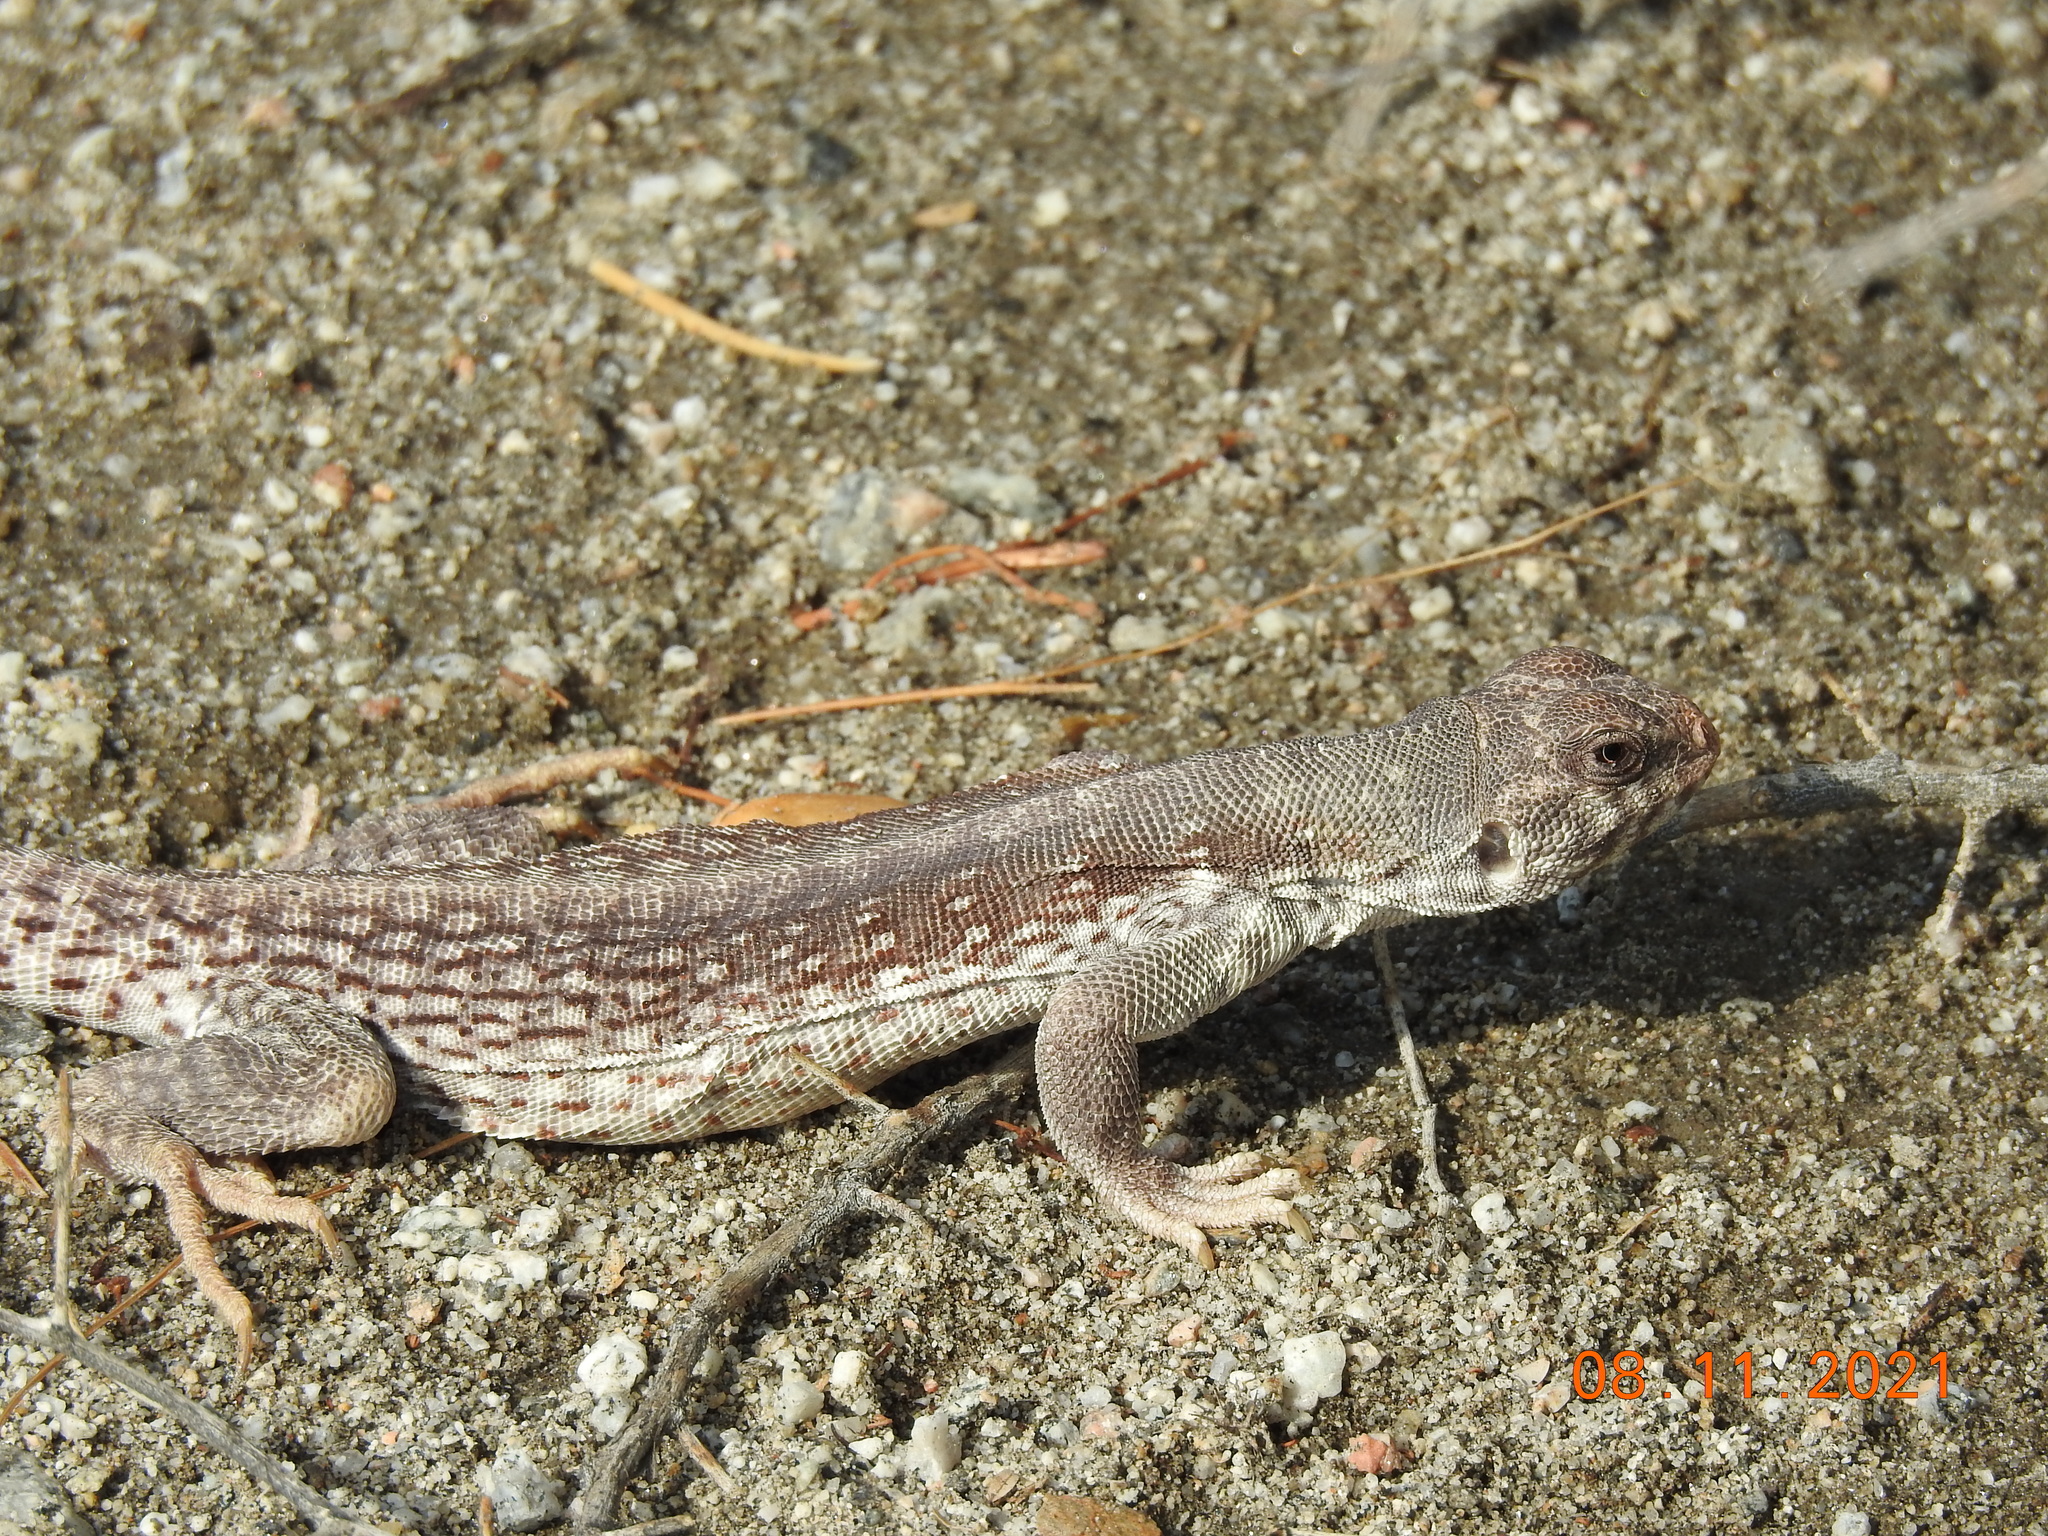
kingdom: Animalia
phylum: Chordata
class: Squamata
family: Iguanidae
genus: Dipsosaurus
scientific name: Dipsosaurus dorsalis
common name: Desert iguana
